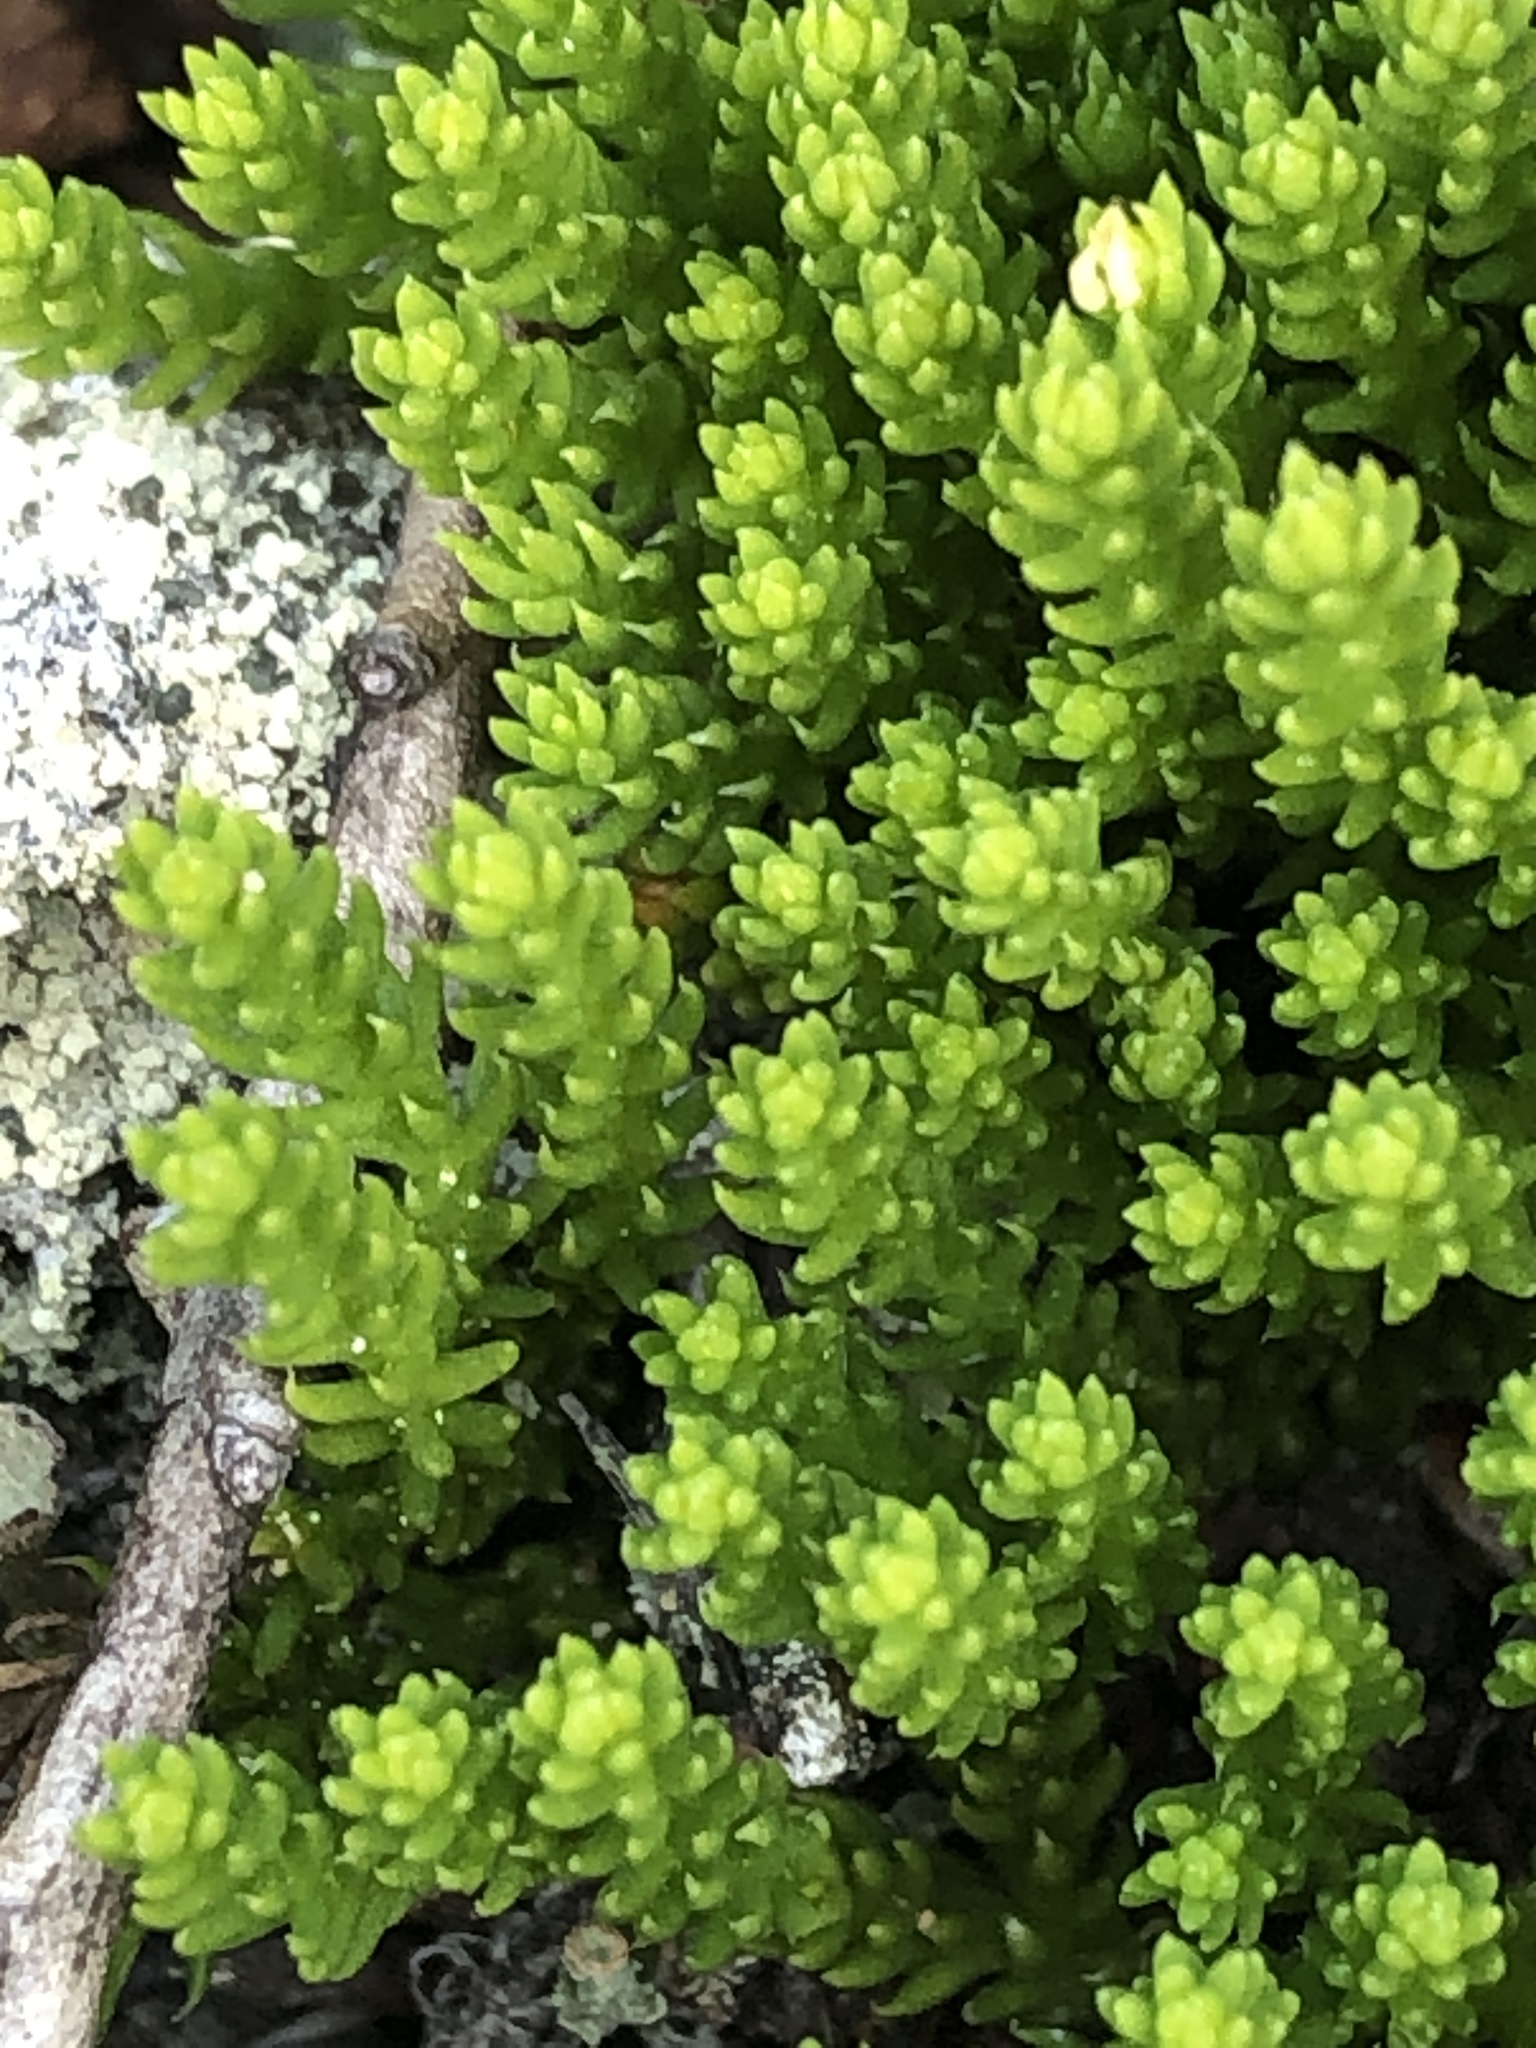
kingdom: Plantae
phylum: Tracheophyta
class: Lycopodiopsida
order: Lycopodiales
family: Lycopodiaceae
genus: Diphasiastrum
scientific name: Diphasiastrum sitchense
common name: Alaska clubmoss
